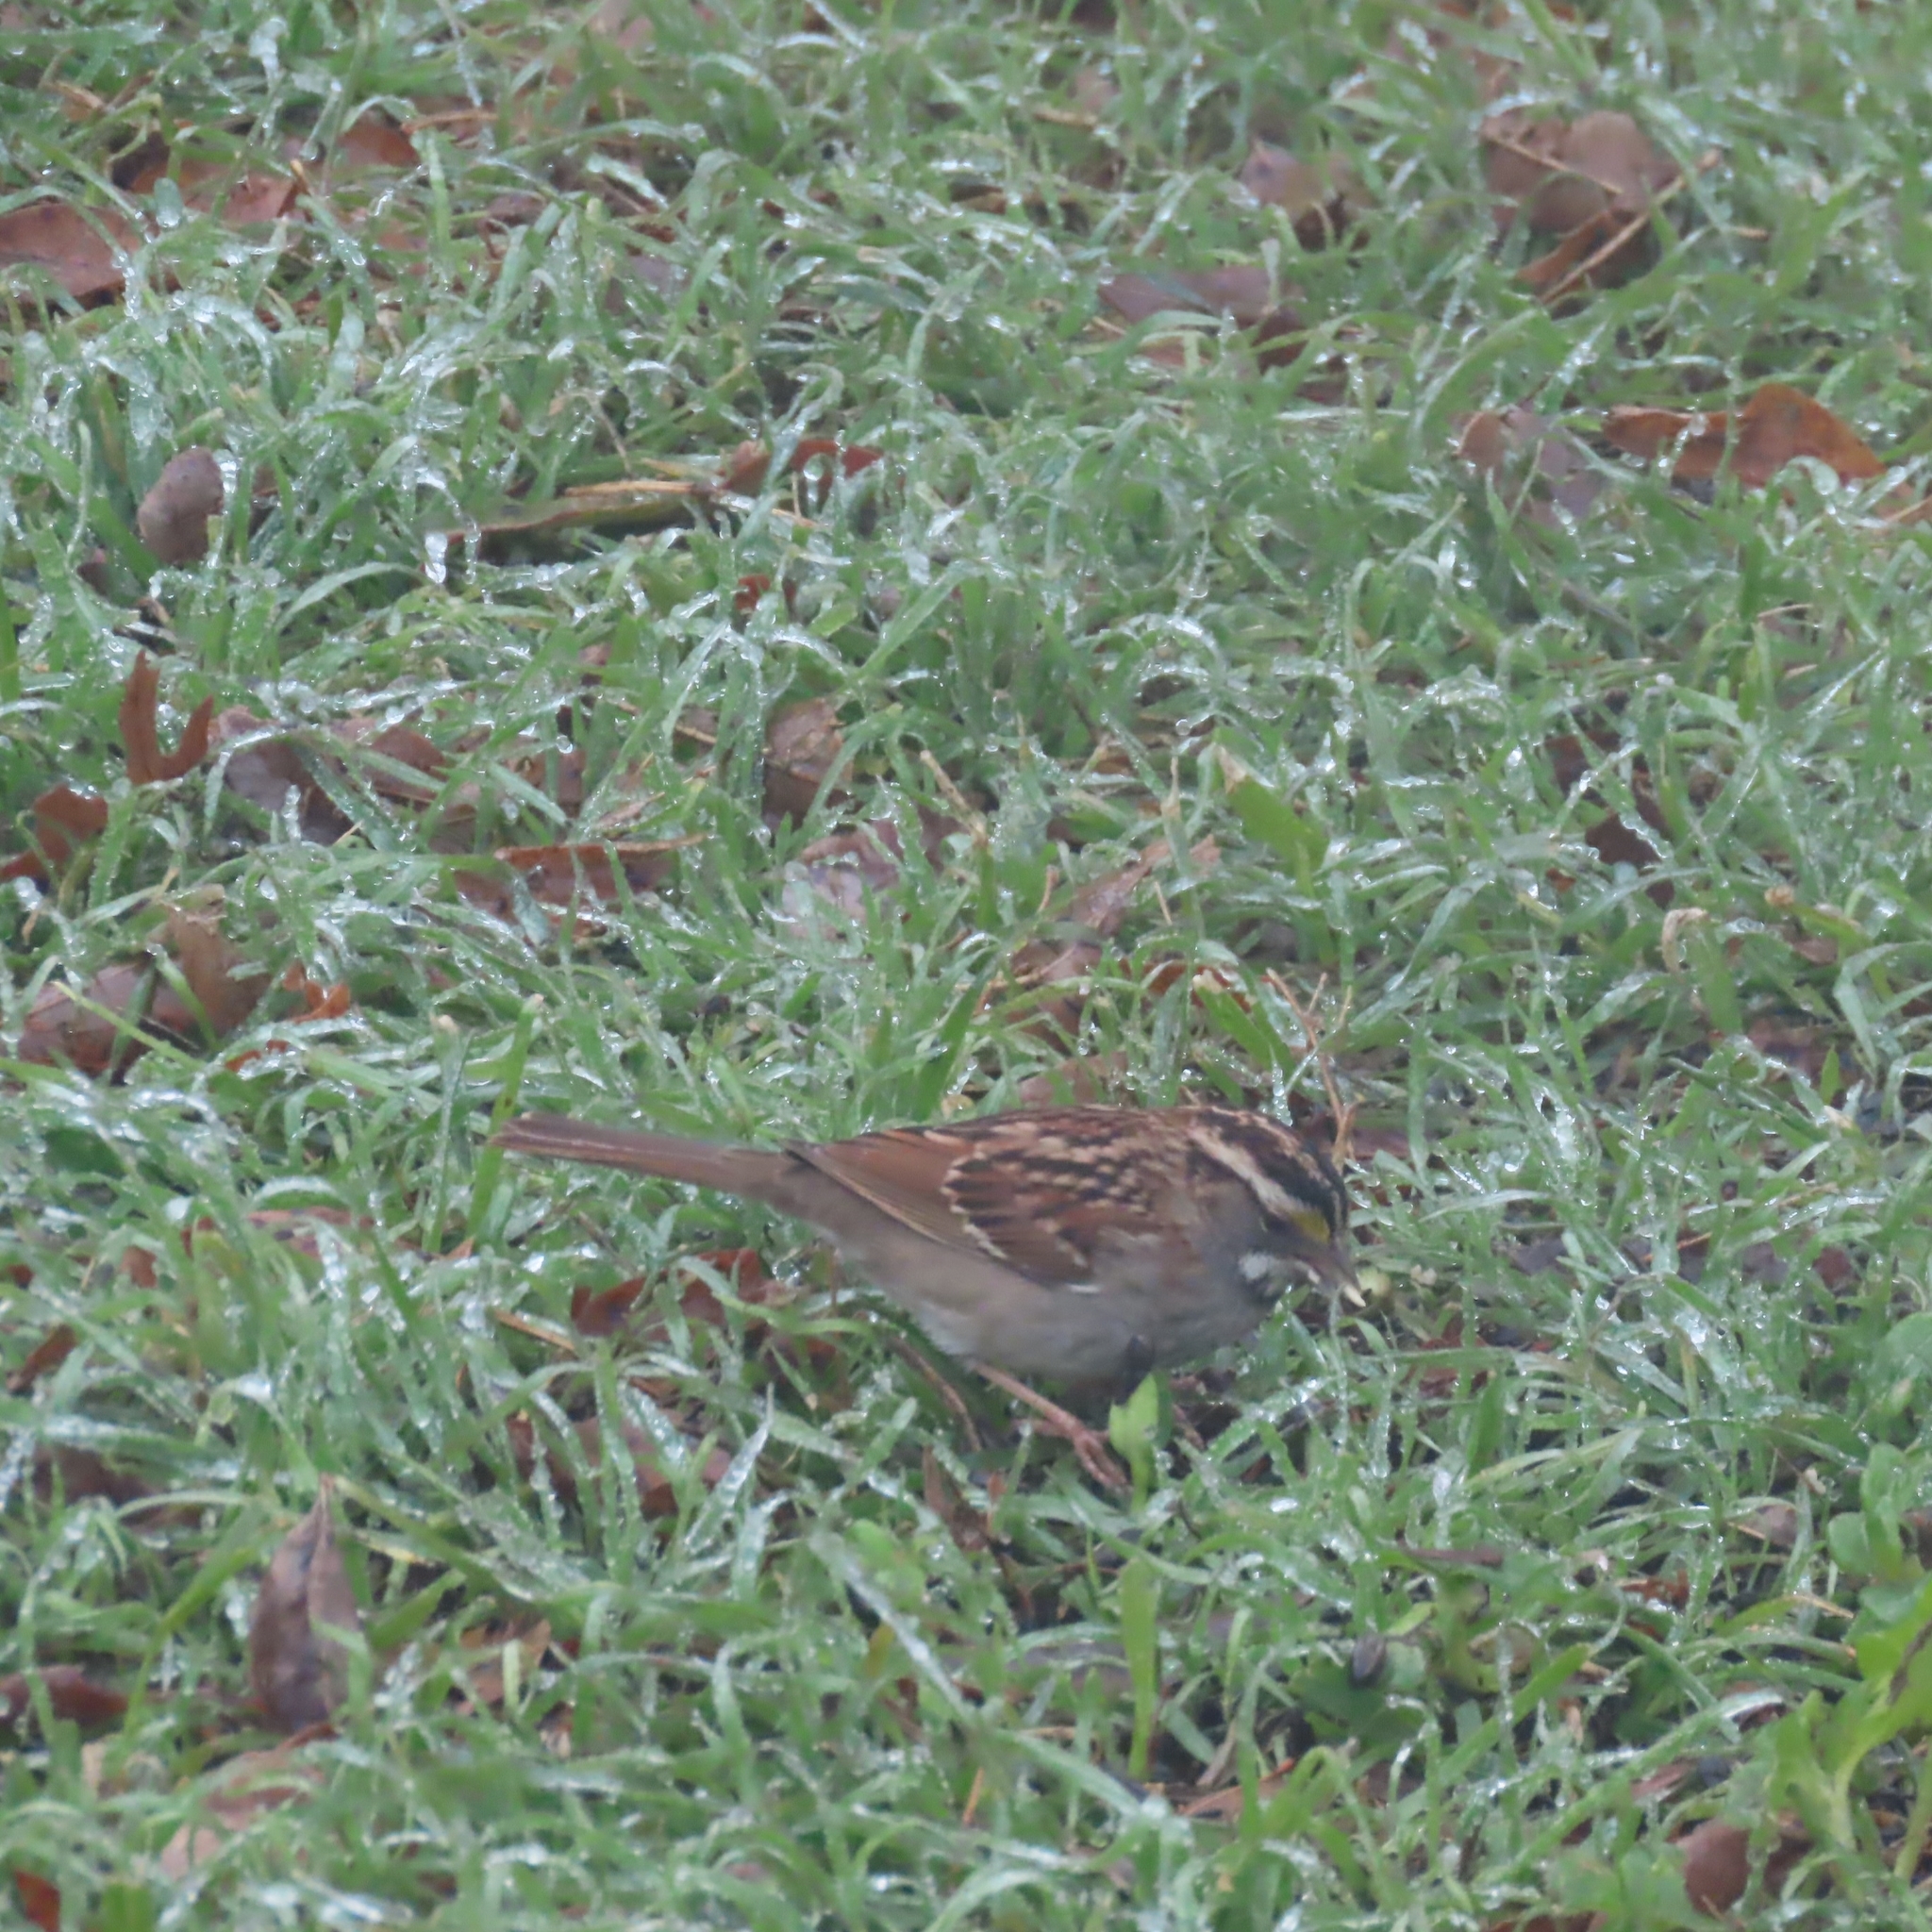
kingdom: Animalia
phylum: Chordata
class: Aves
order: Passeriformes
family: Passerellidae
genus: Zonotrichia
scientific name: Zonotrichia albicollis
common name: White-throated sparrow
